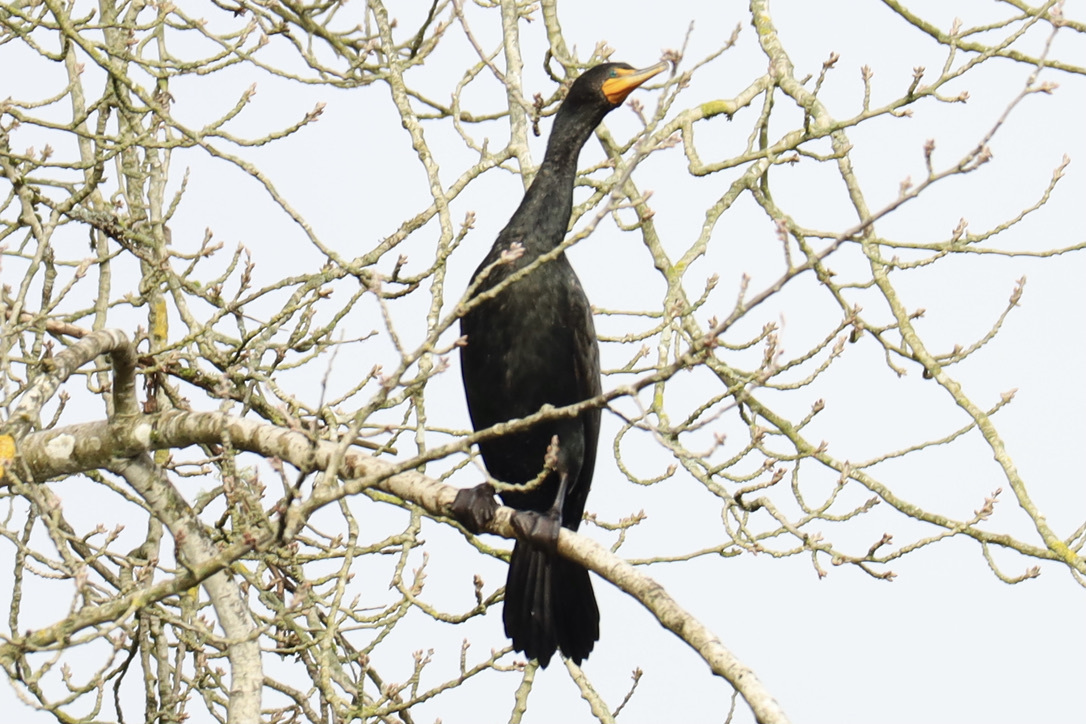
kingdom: Animalia
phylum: Chordata
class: Aves
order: Suliformes
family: Phalacrocoracidae
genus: Phalacrocorax
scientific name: Phalacrocorax auritus
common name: Double-crested cormorant
